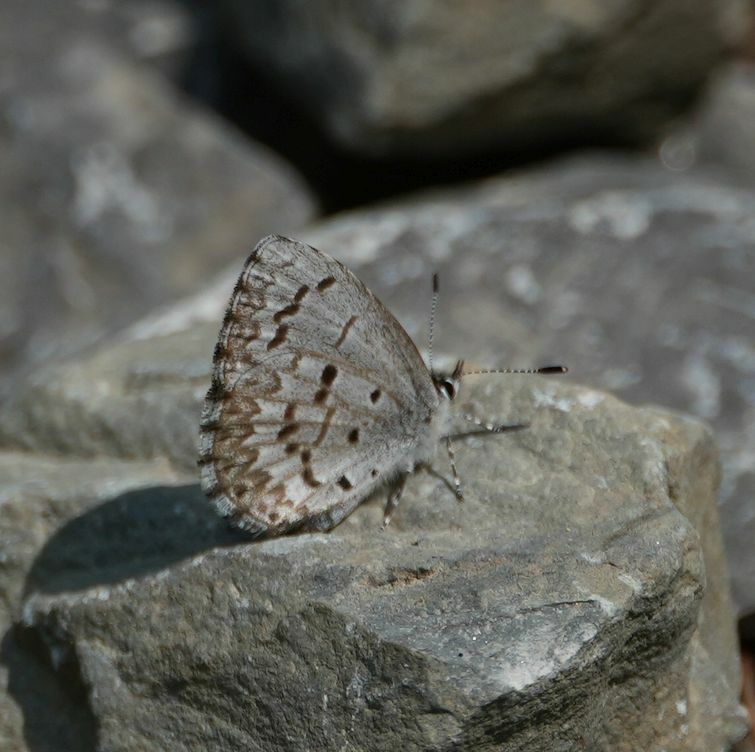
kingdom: Animalia
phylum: Arthropoda
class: Insecta
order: Lepidoptera
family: Lycaenidae
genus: Celastrina
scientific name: Celastrina lucia
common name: Lucia azure
